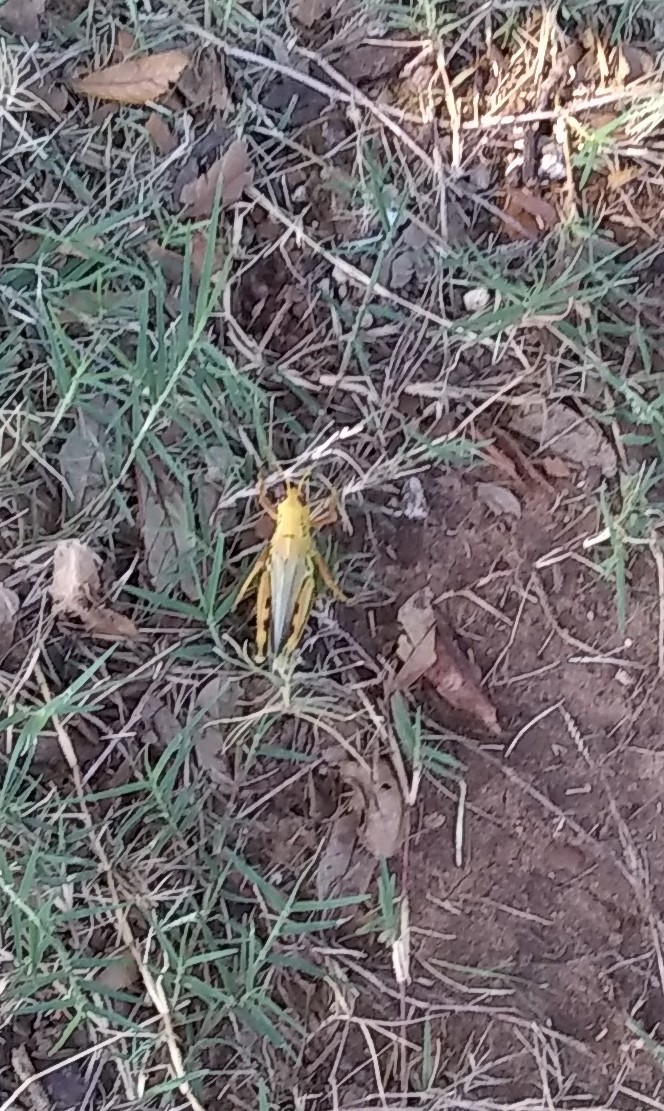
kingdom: Animalia
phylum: Arthropoda
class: Insecta
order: Orthoptera
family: Acrididae
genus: Melanoplus
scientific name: Melanoplus differentialis
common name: Differential grasshopper
